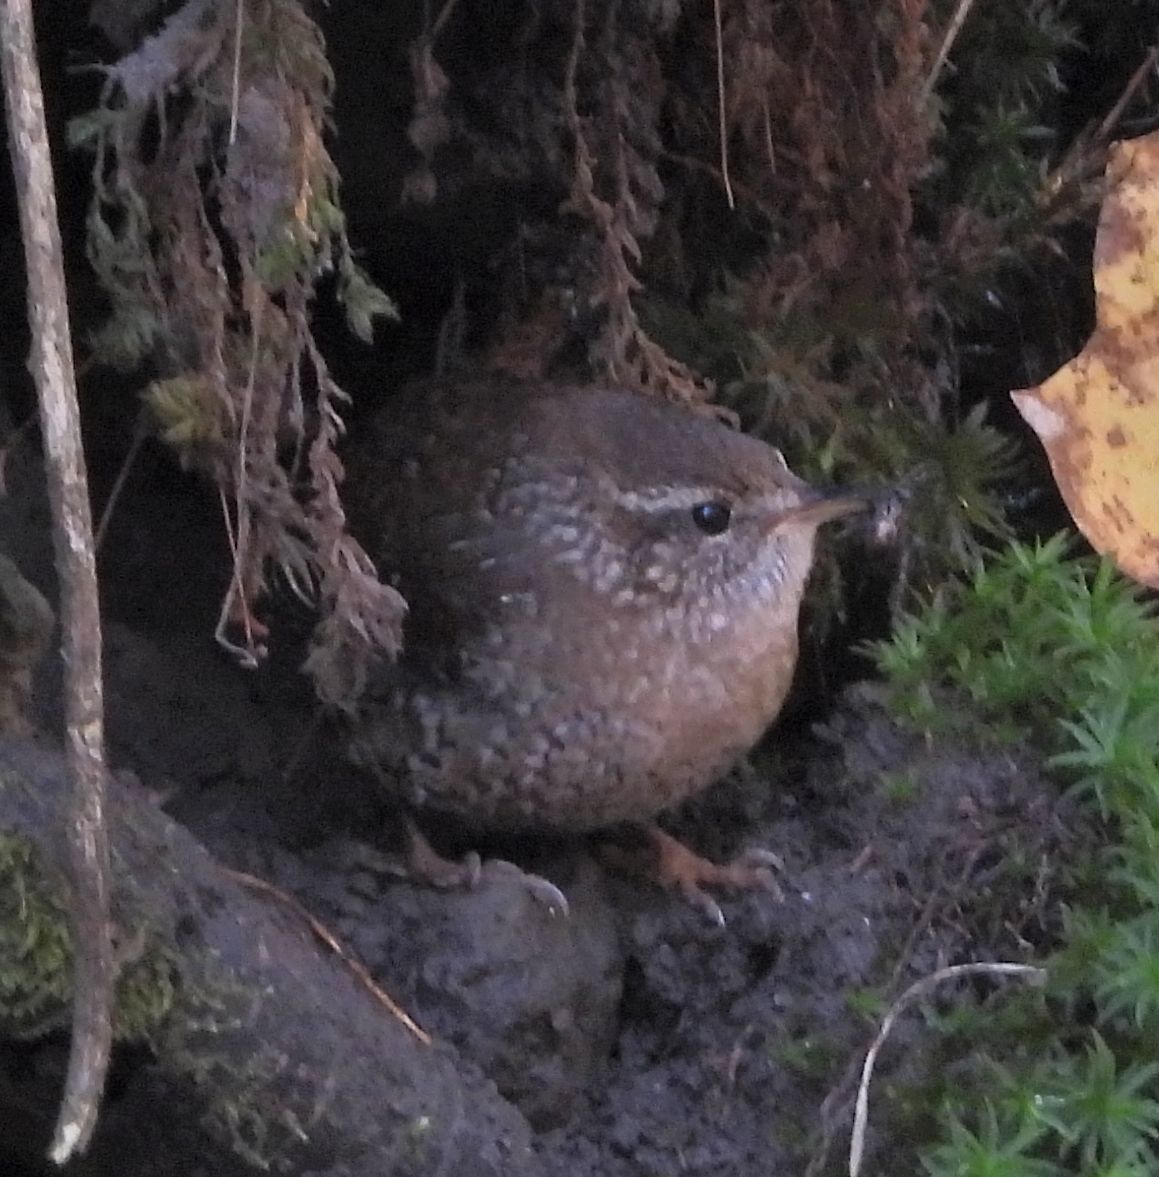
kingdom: Animalia
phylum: Chordata
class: Aves
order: Passeriformes
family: Troglodytidae
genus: Troglodytes
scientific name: Troglodytes hiemalis
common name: Winter wren
